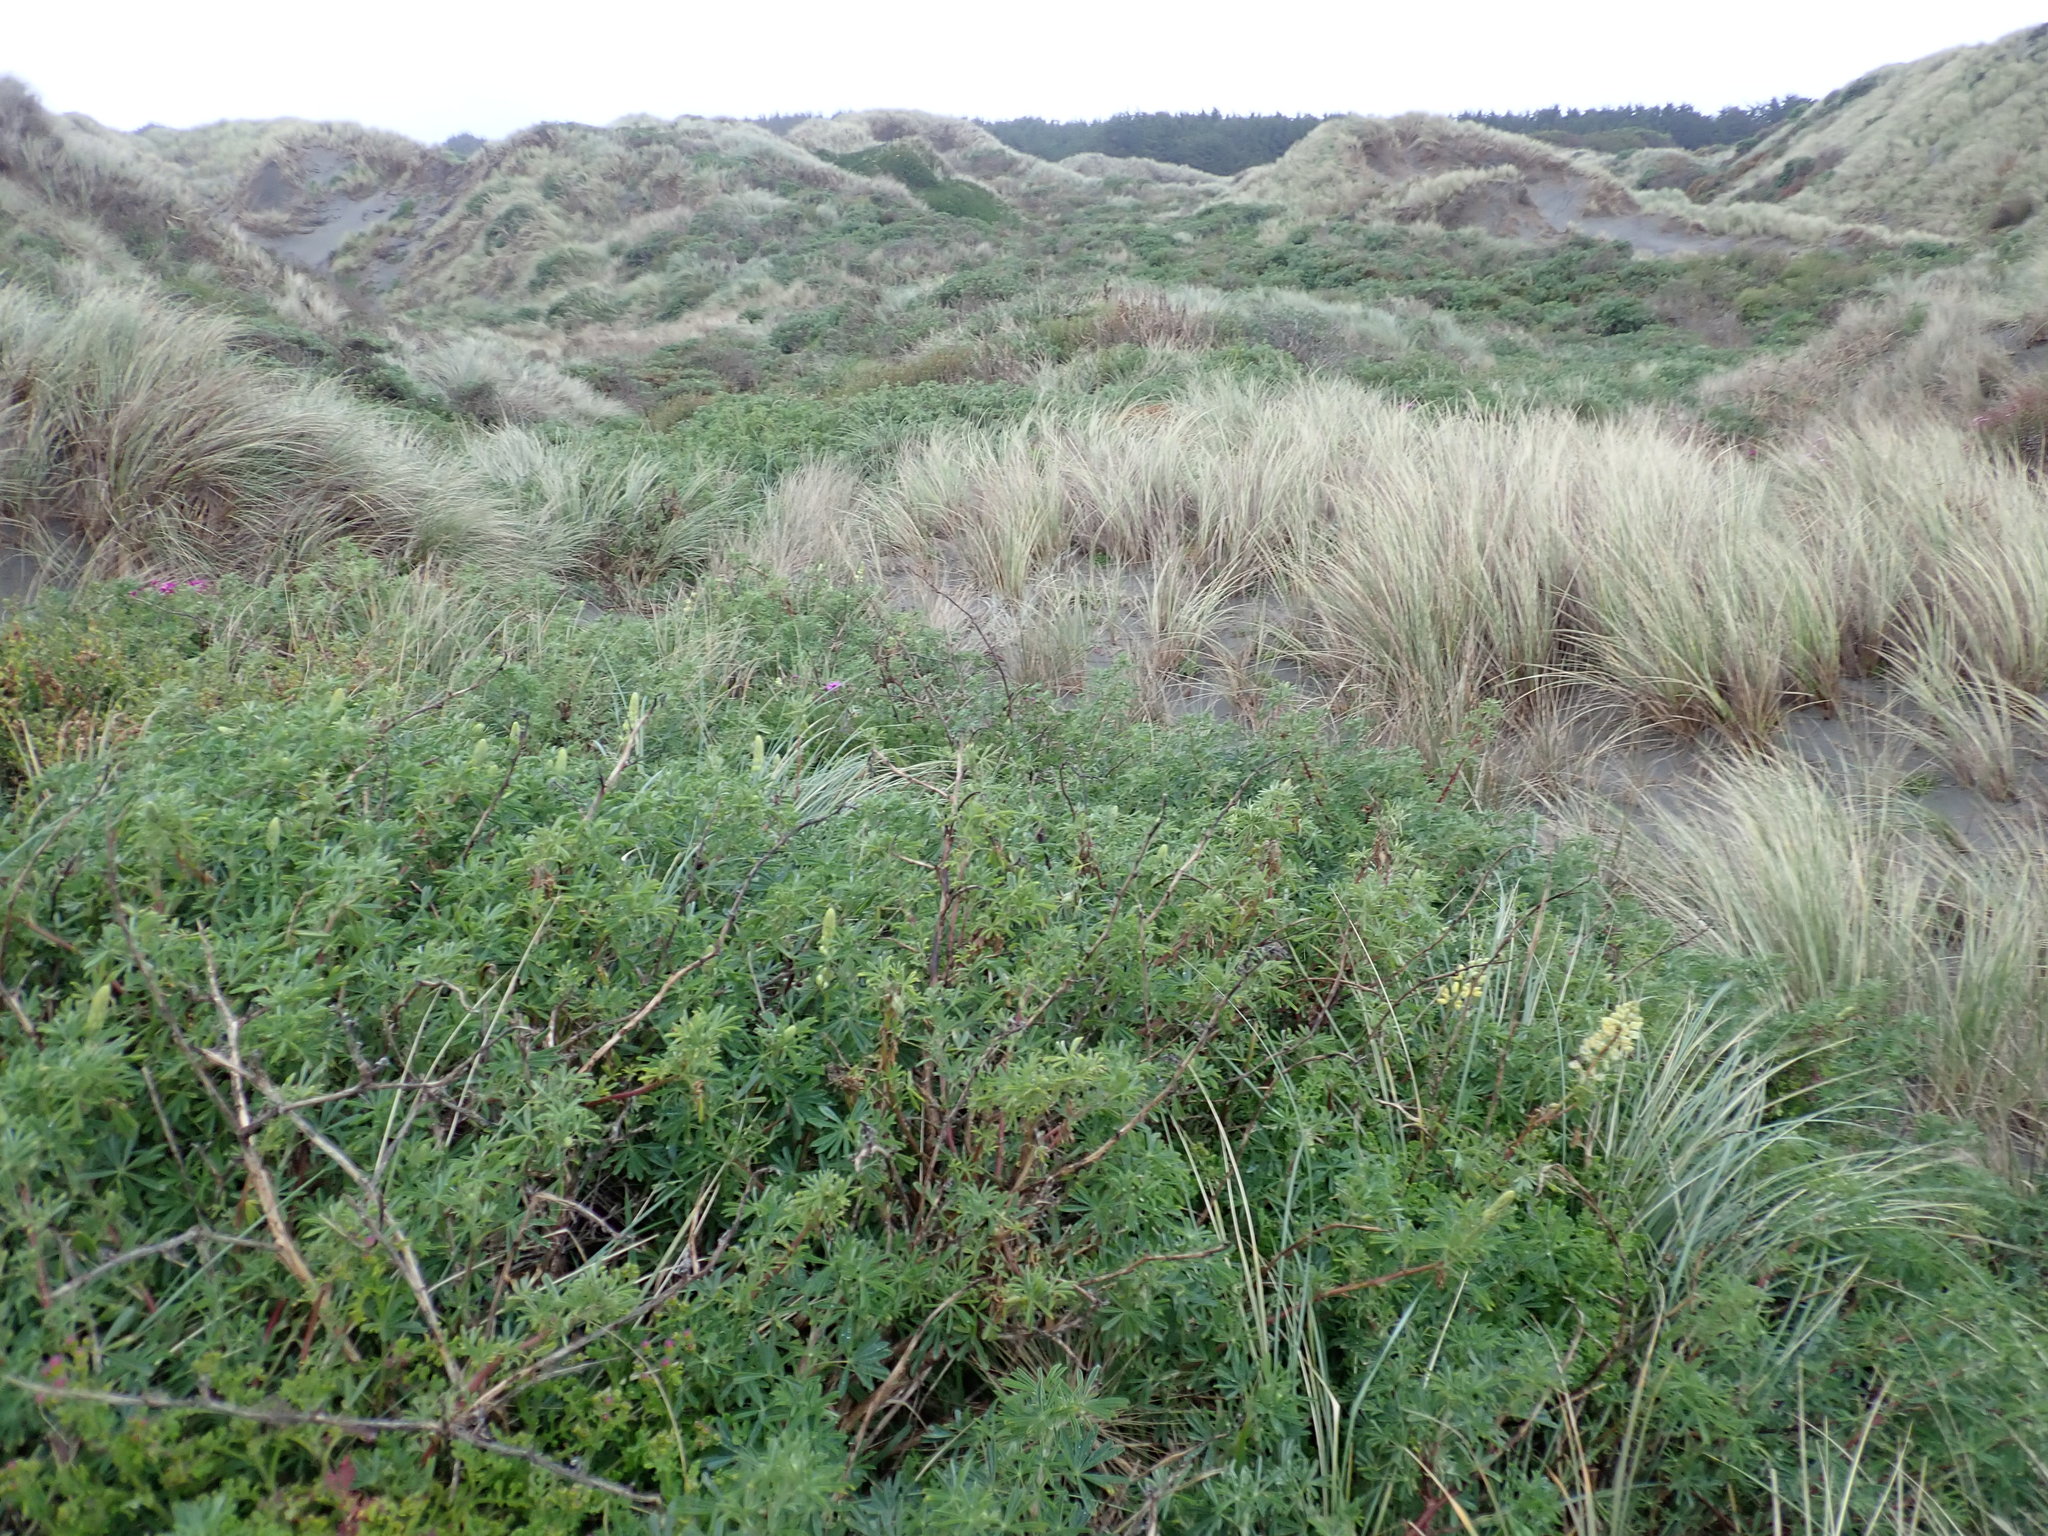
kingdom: Plantae
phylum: Tracheophyta
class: Magnoliopsida
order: Fabales
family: Fabaceae
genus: Lupinus
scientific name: Lupinus arboreus
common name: Yellow bush lupine
